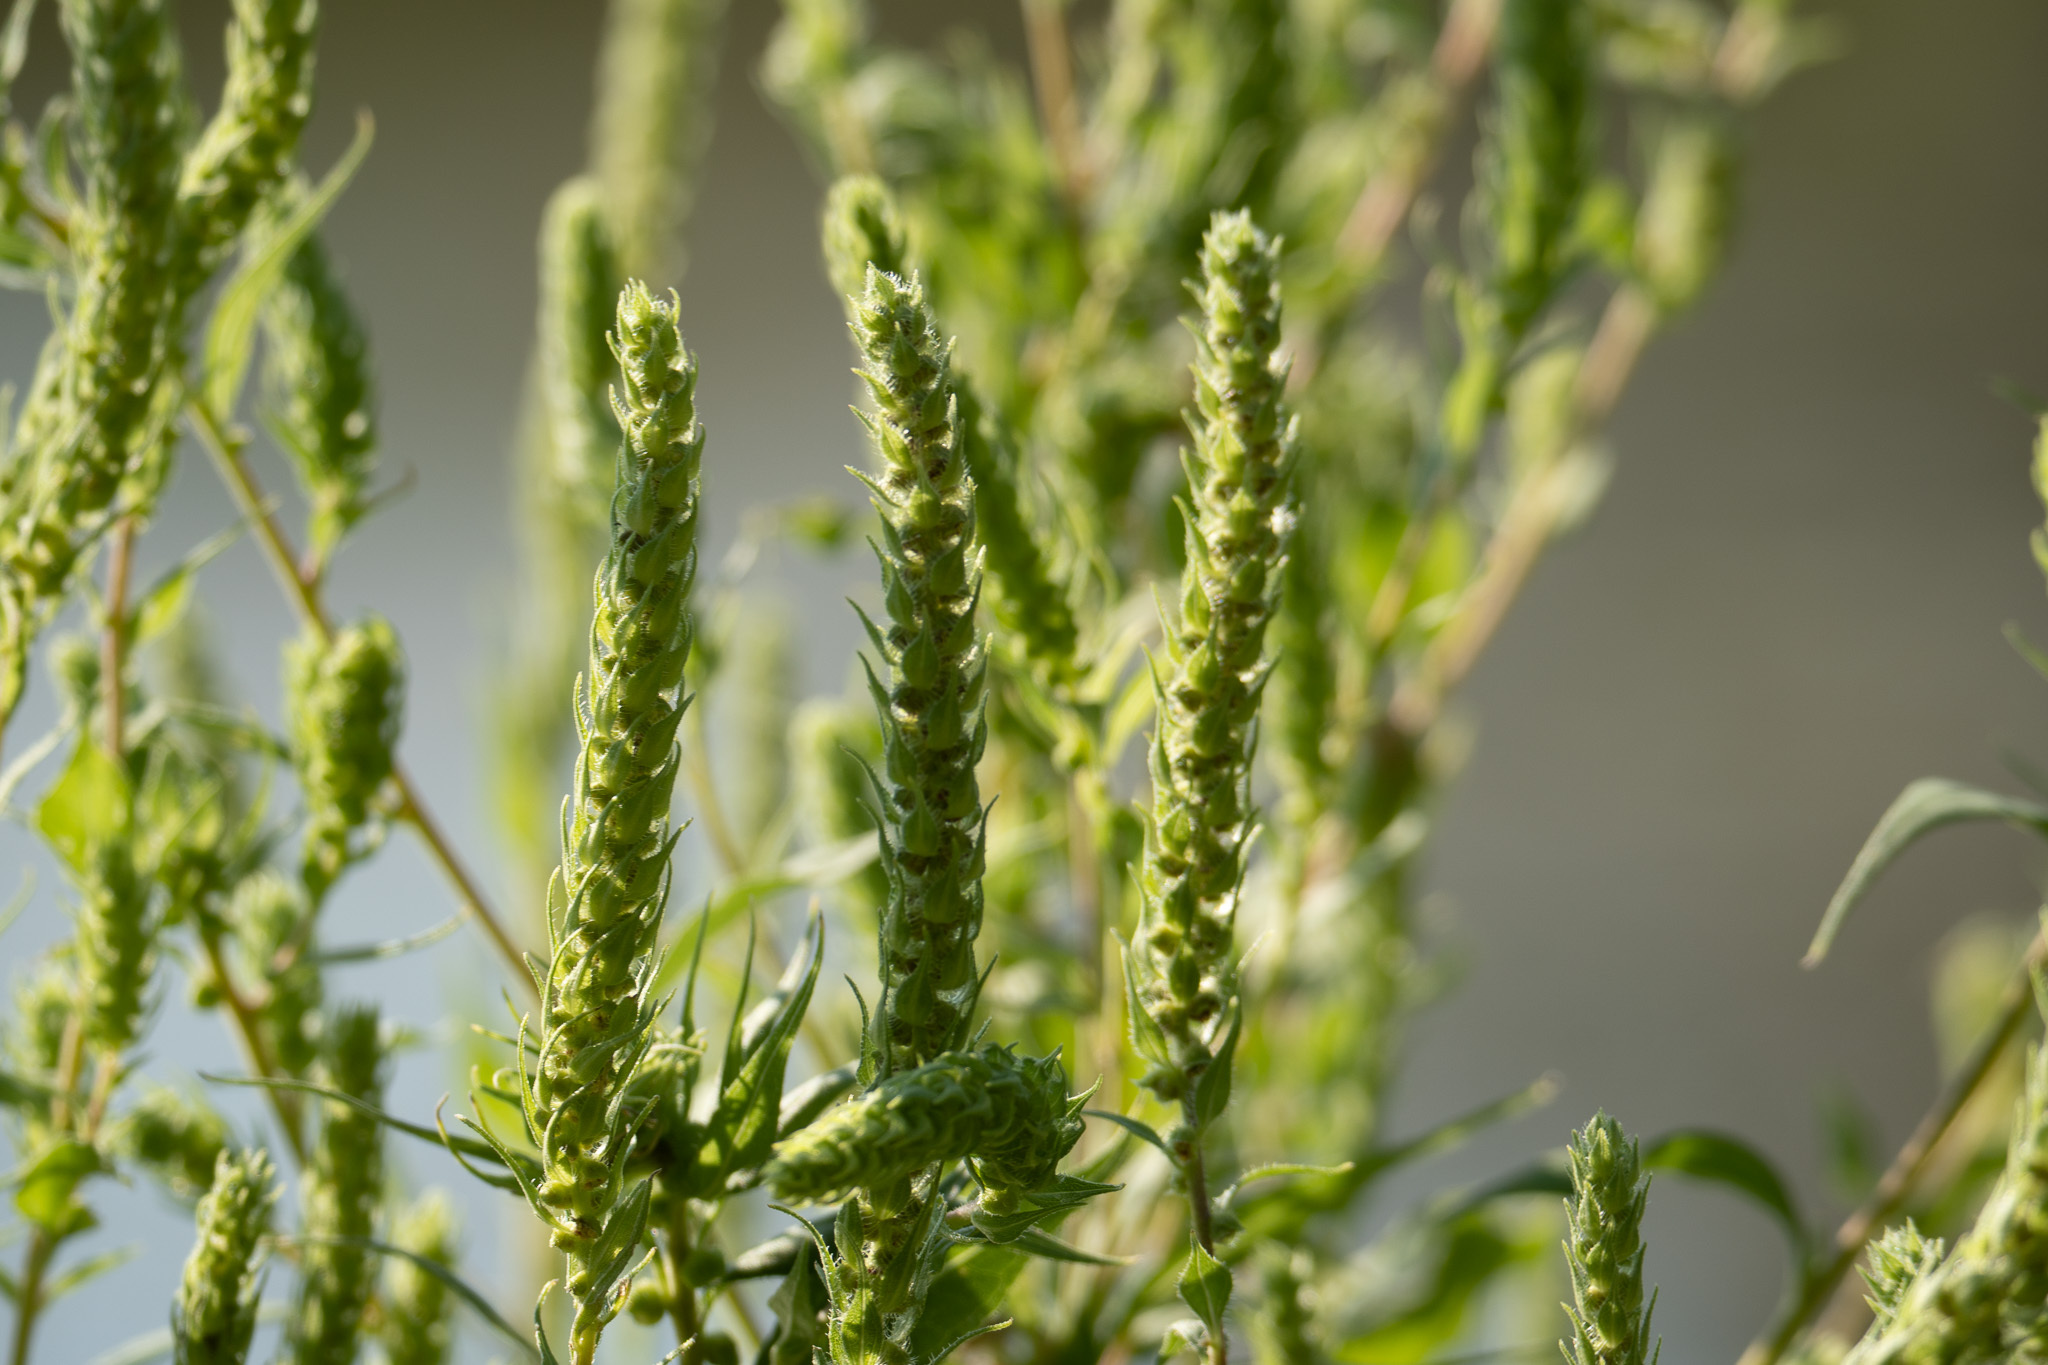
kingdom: Plantae
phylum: Tracheophyta
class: Magnoliopsida
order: Asterales
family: Asteraceae
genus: Iva
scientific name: Iva annua
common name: Marsh-elder
